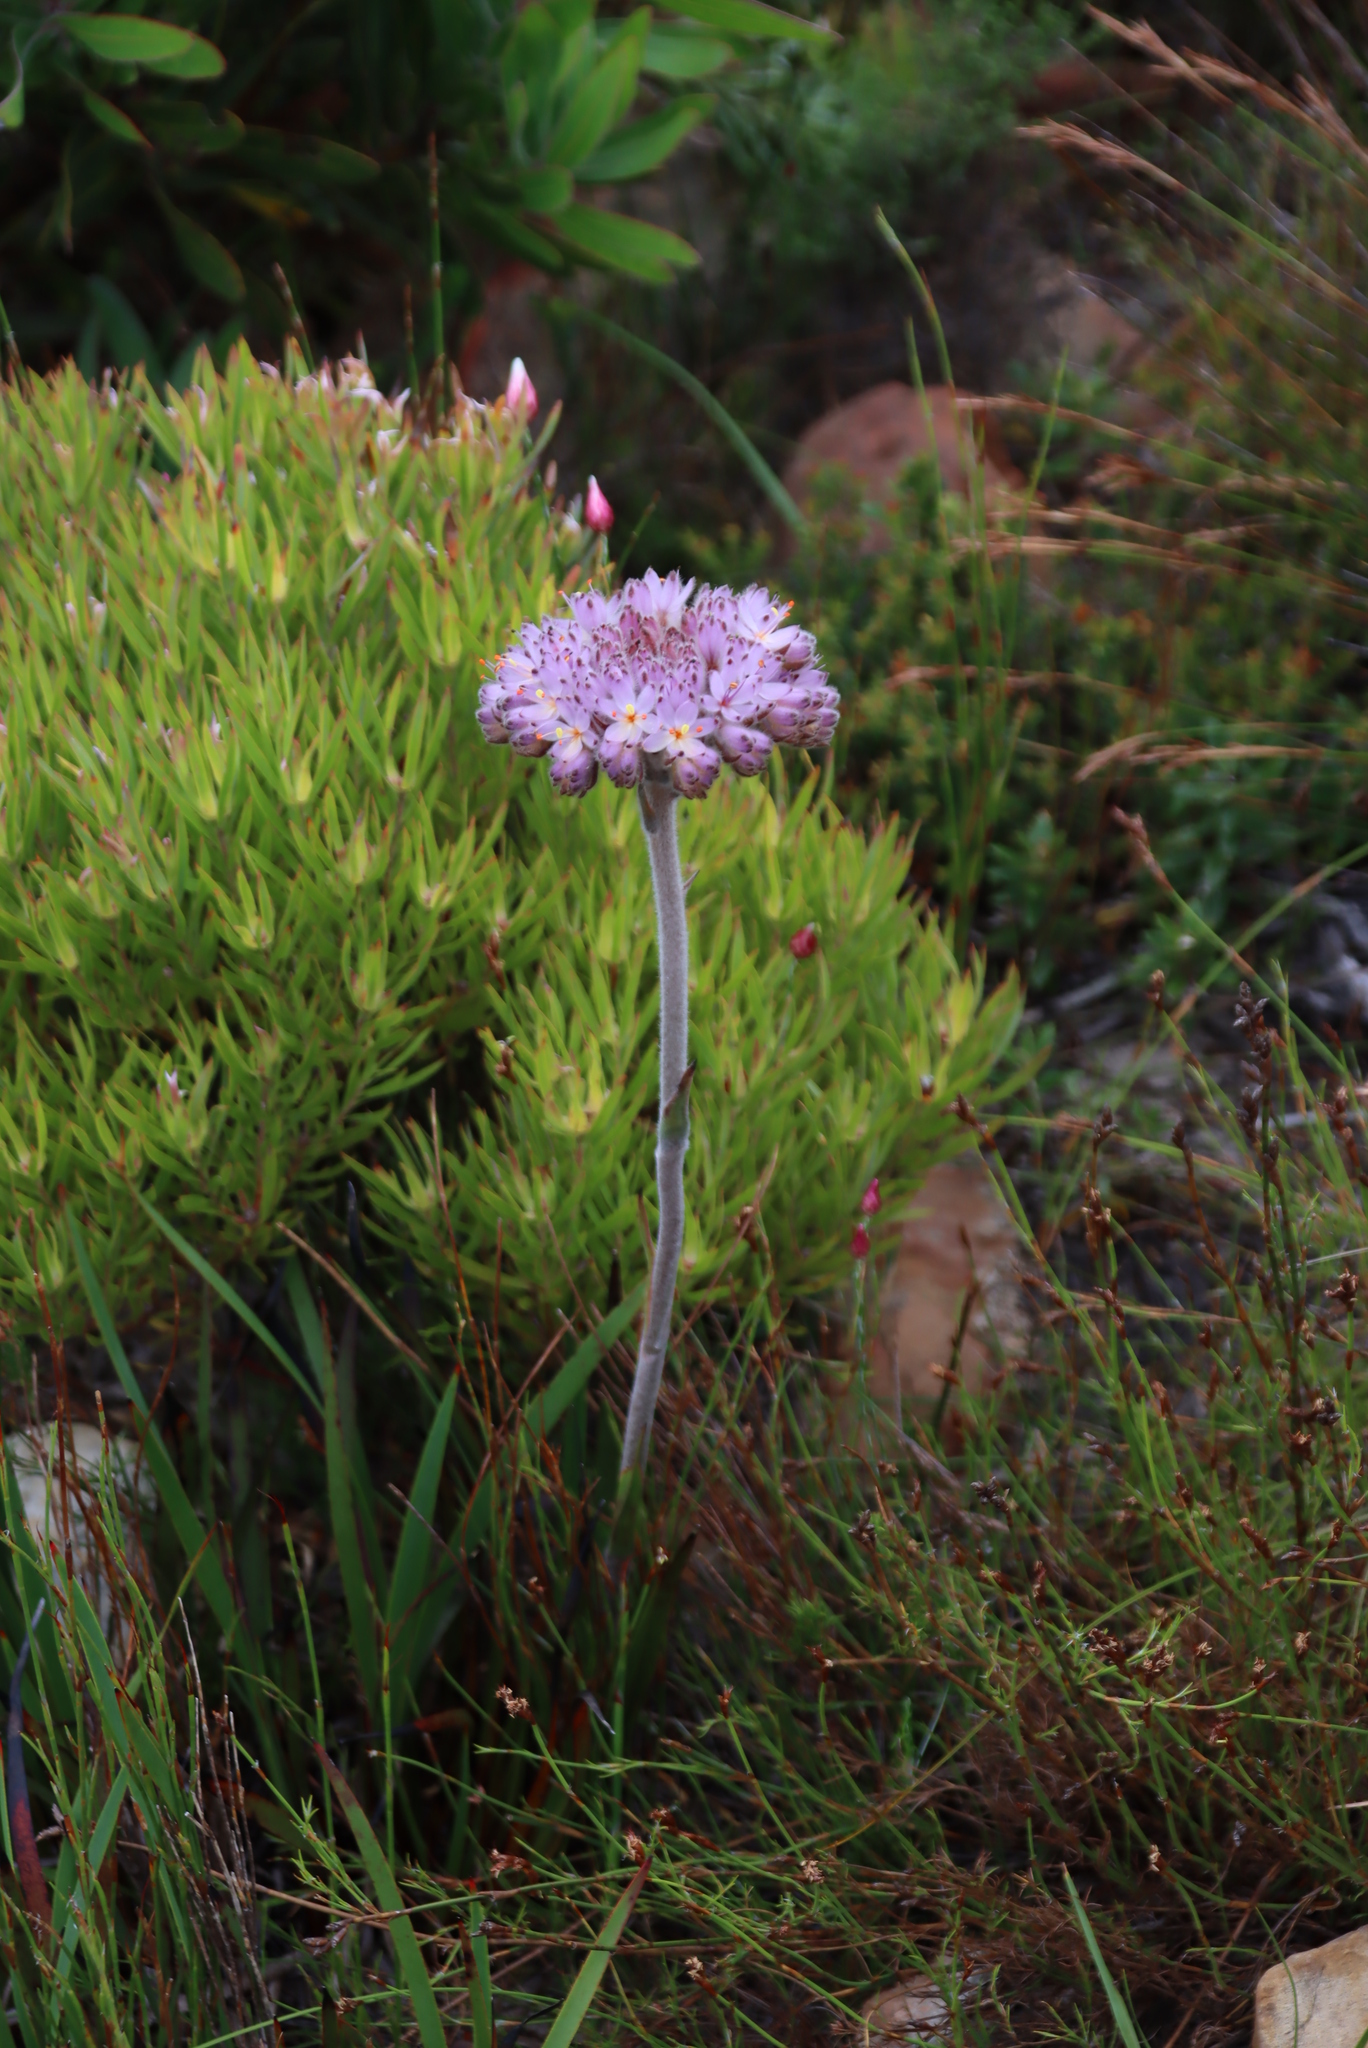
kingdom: Plantae
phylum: Tracheophyta
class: Liliopsida
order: Commelinales
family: Haemodoraceae
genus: Dilatris
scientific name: Dilatris corymbosa
